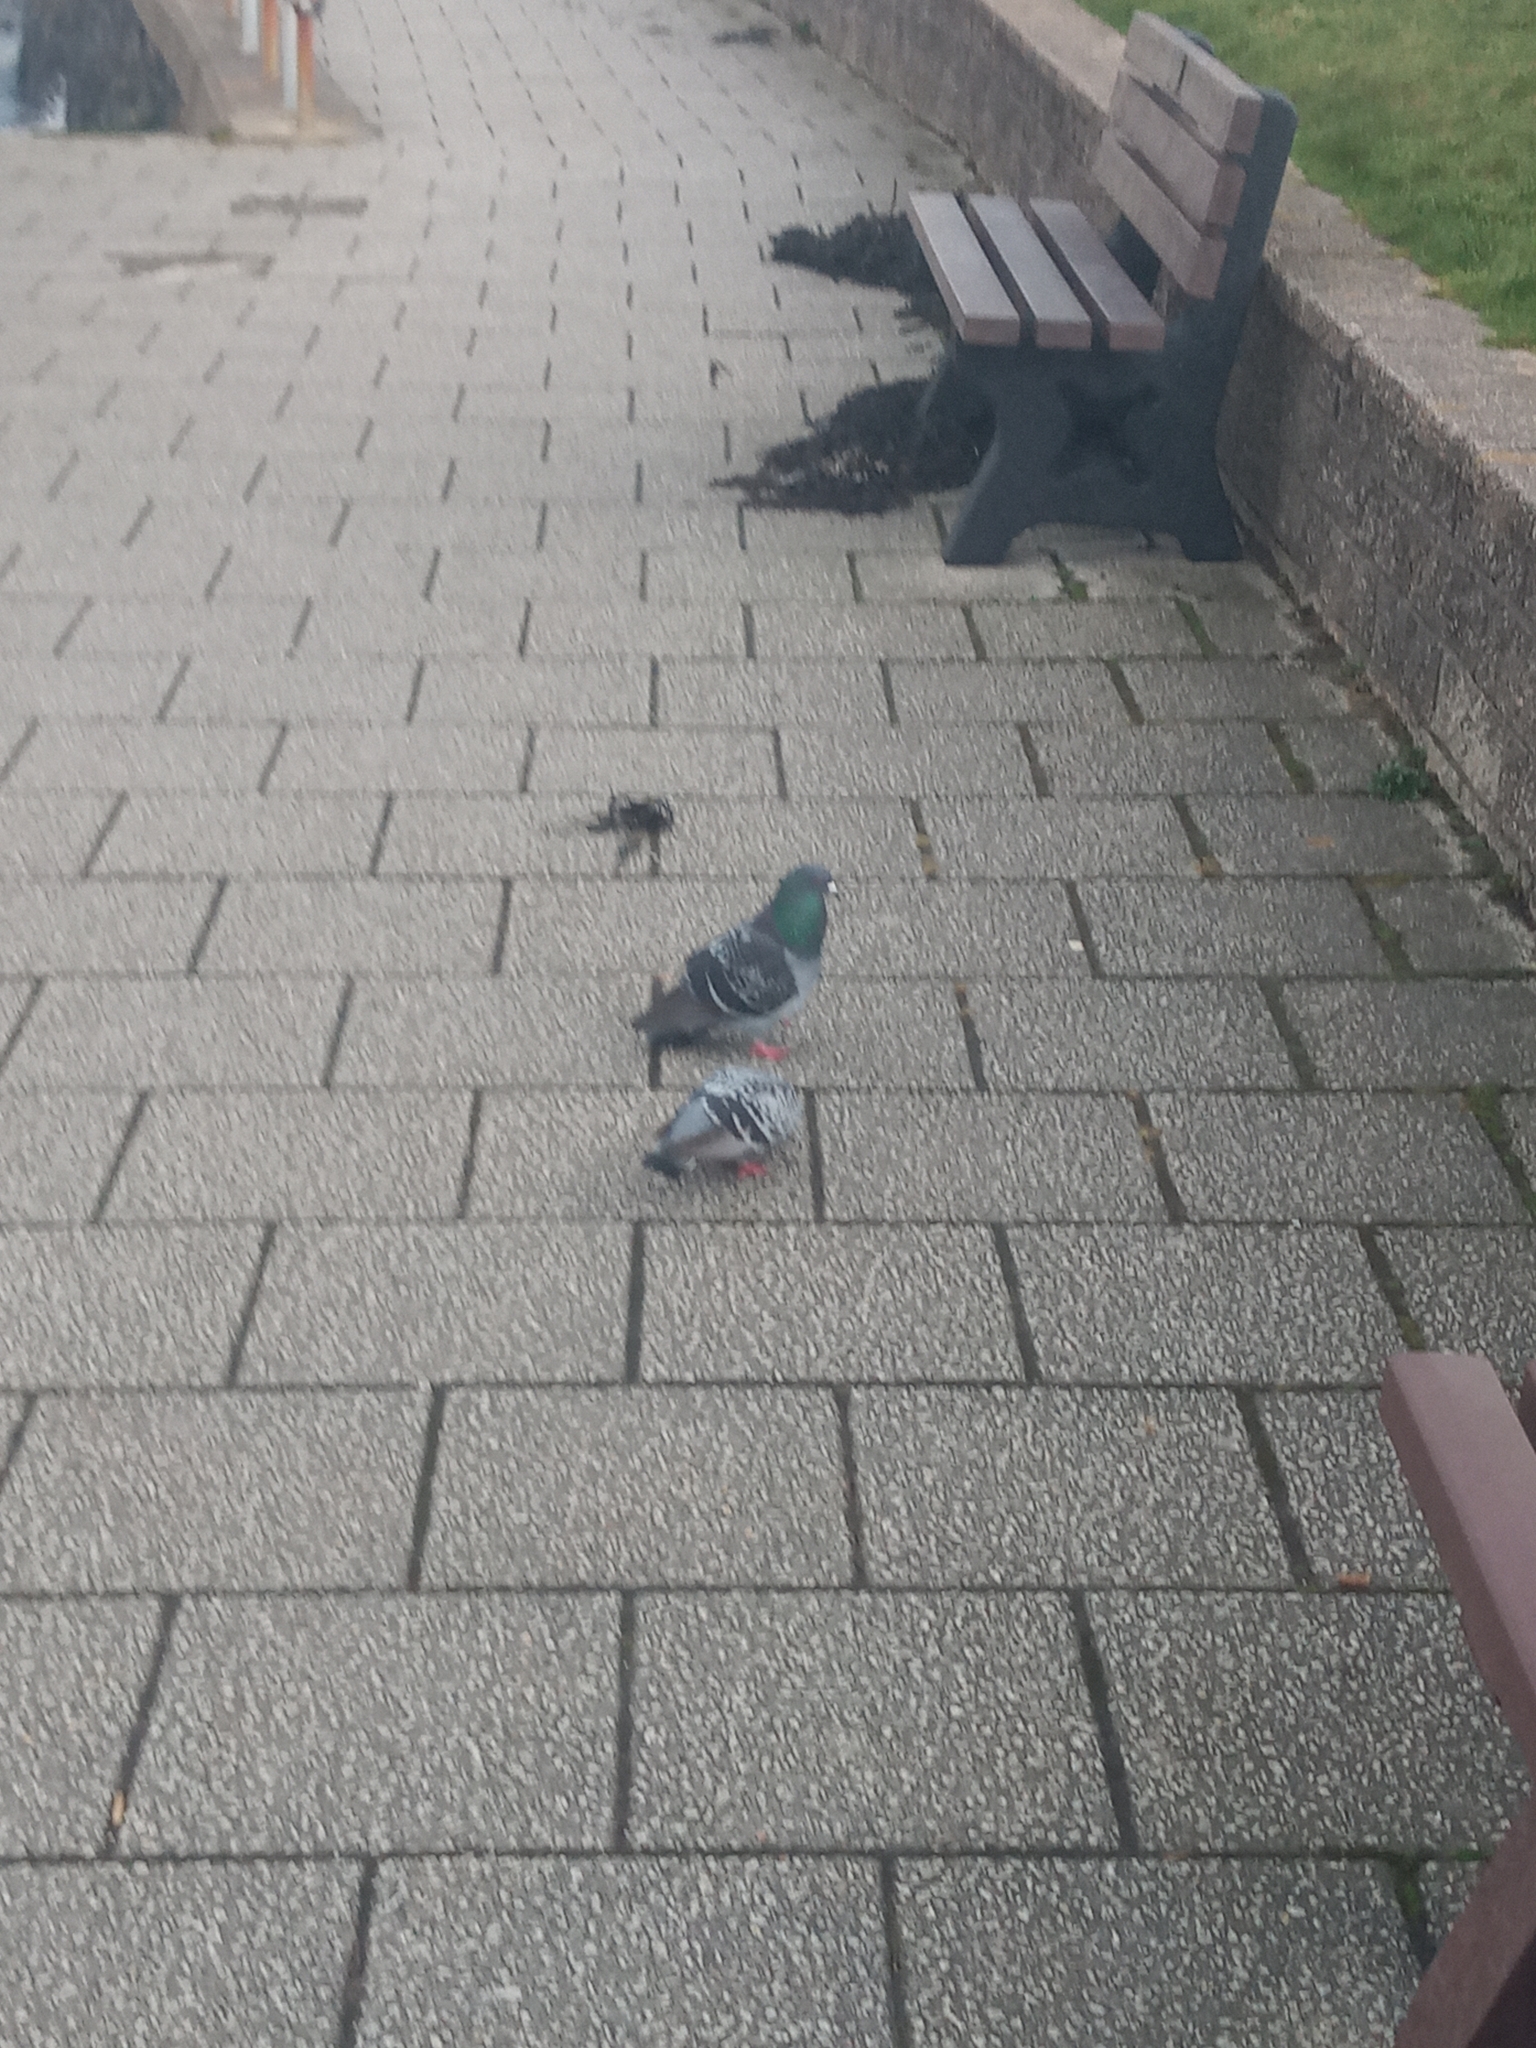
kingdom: Animalia
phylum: Chordata
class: Aves
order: Columbiformes
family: Columbidae
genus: Columba
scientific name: Columba livia
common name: Rock pigeon
